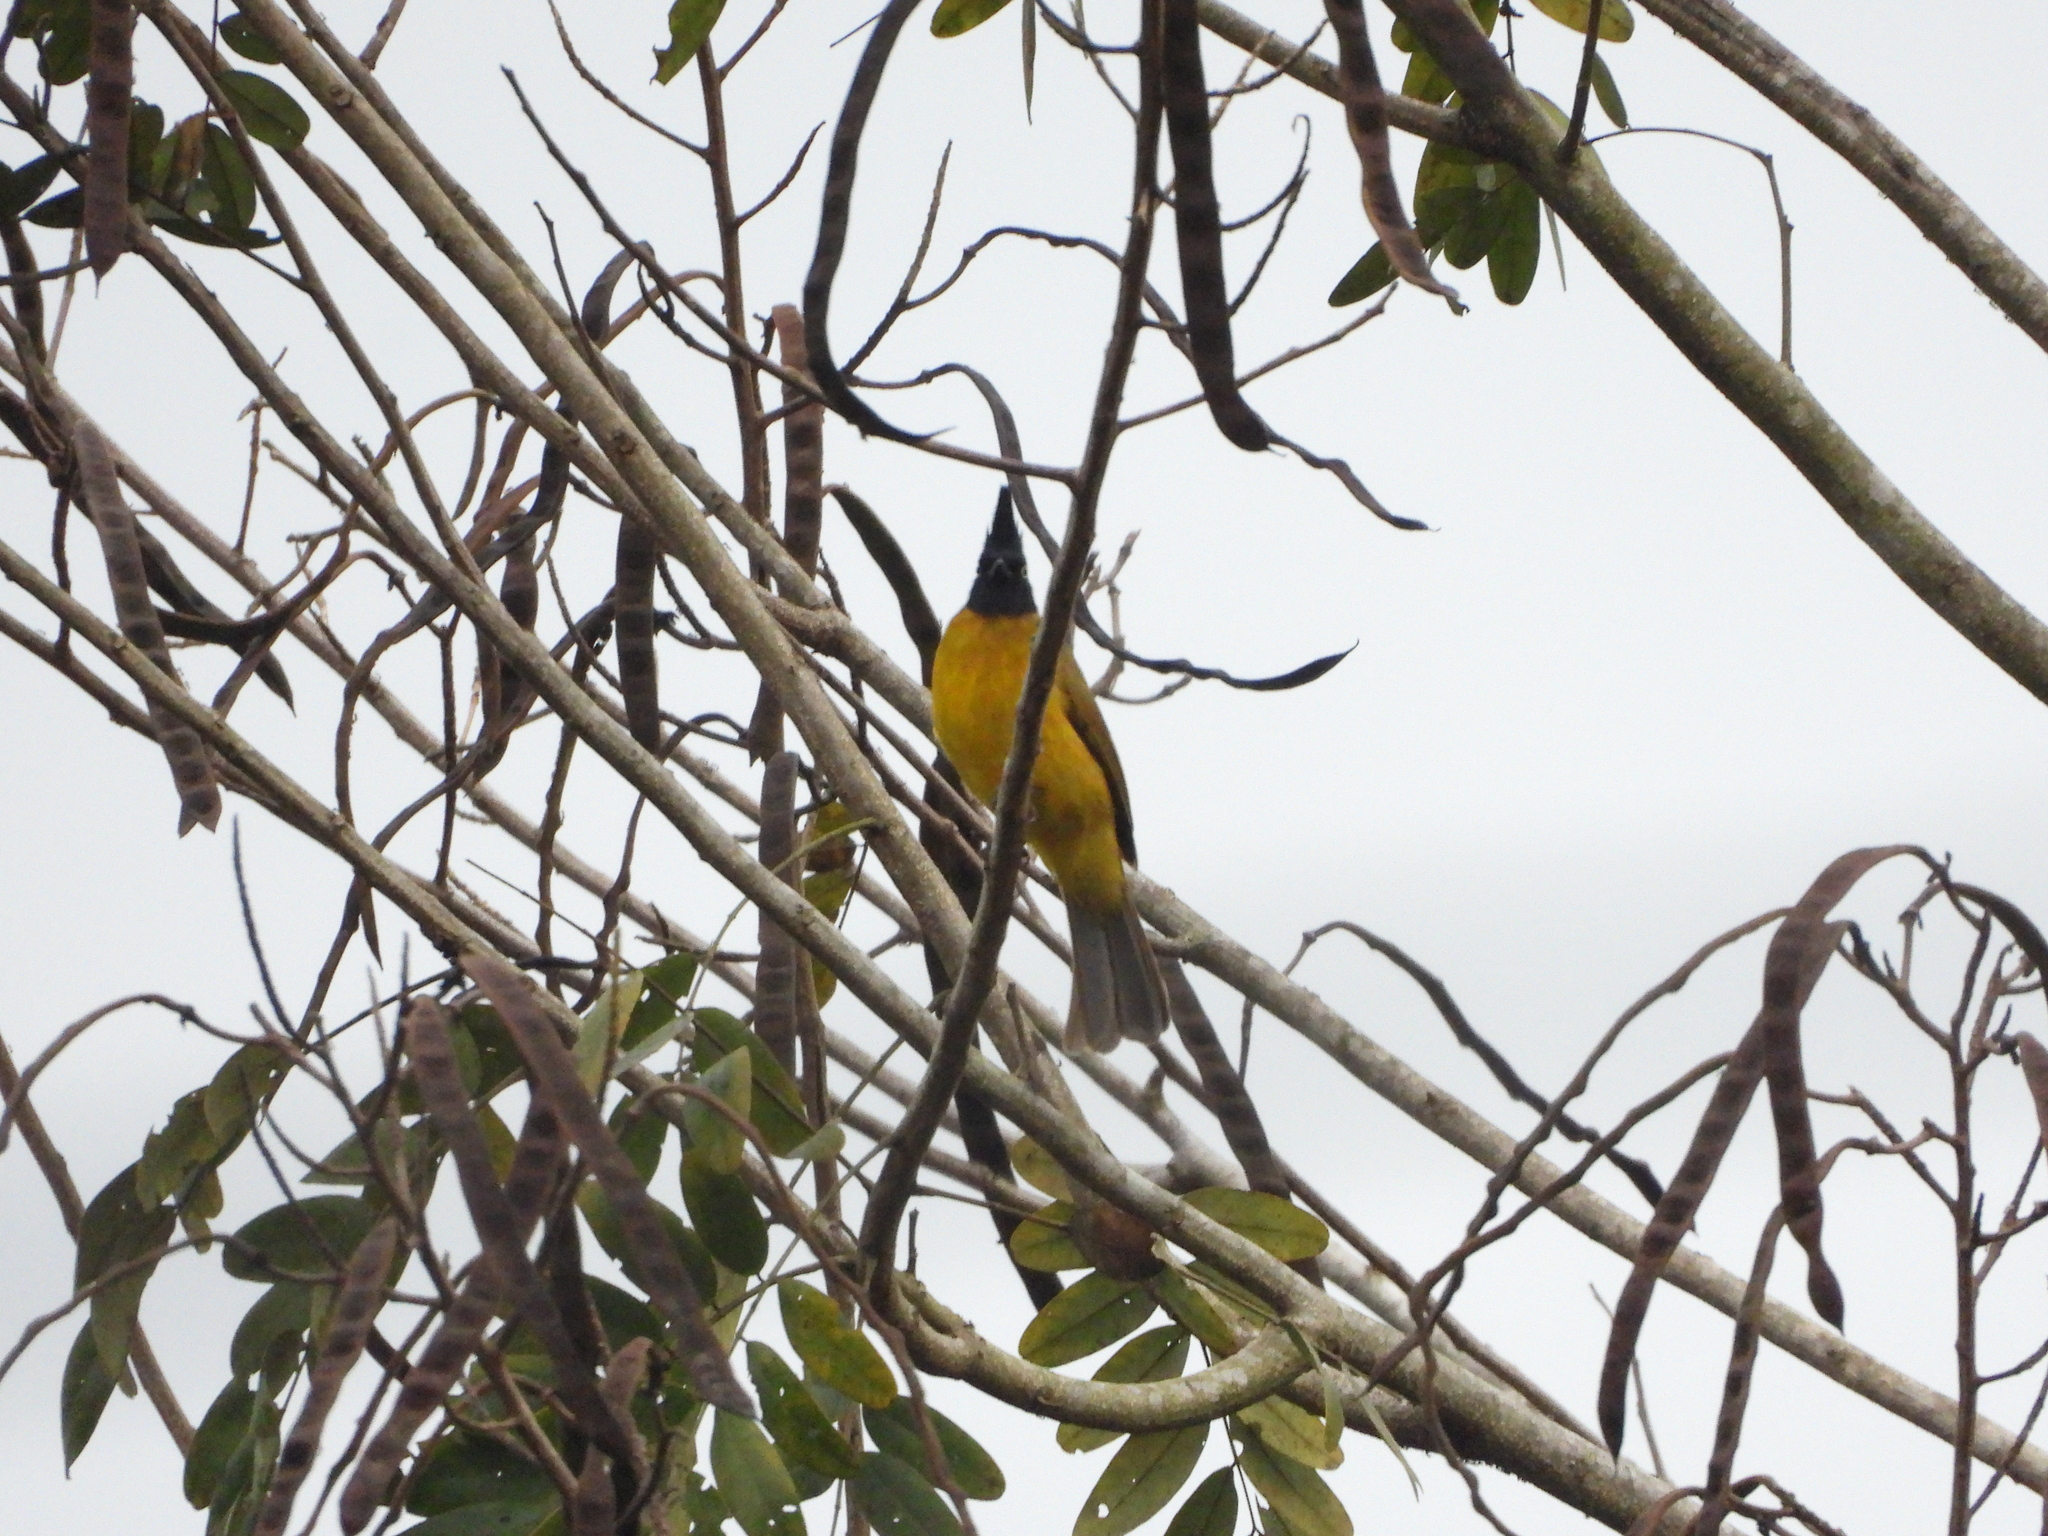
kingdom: Animalia
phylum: Chordata
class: Aves
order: Passeriformes
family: Pycnonotidae
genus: Pycnonotus
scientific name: Pycnonotus flaviventris
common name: Black-crested bulbul
